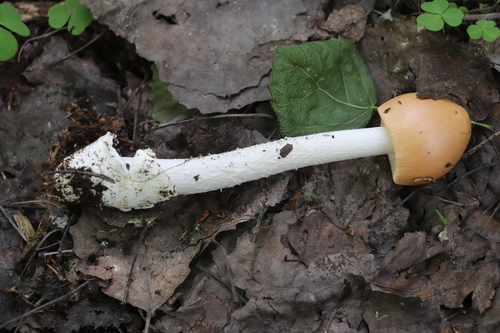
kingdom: Fungi
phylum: Basidiomycota
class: Agaricomycetes
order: Agaricales
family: Amanitaceae
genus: Amanita
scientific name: Amanita crocea
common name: Orange grisette
